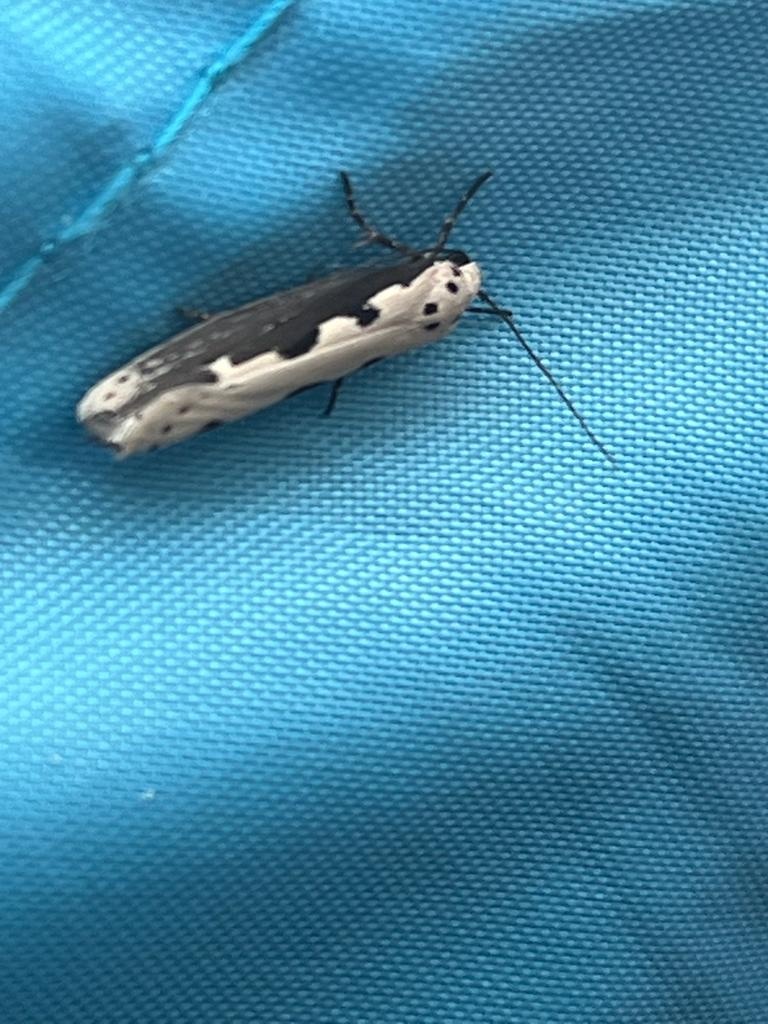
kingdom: Animalia
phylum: Arthropoda
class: Insecta
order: Lepidoptera
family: Ethmiidae
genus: Ethmia
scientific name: Ethmia bipunctella
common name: Bordered ermel
